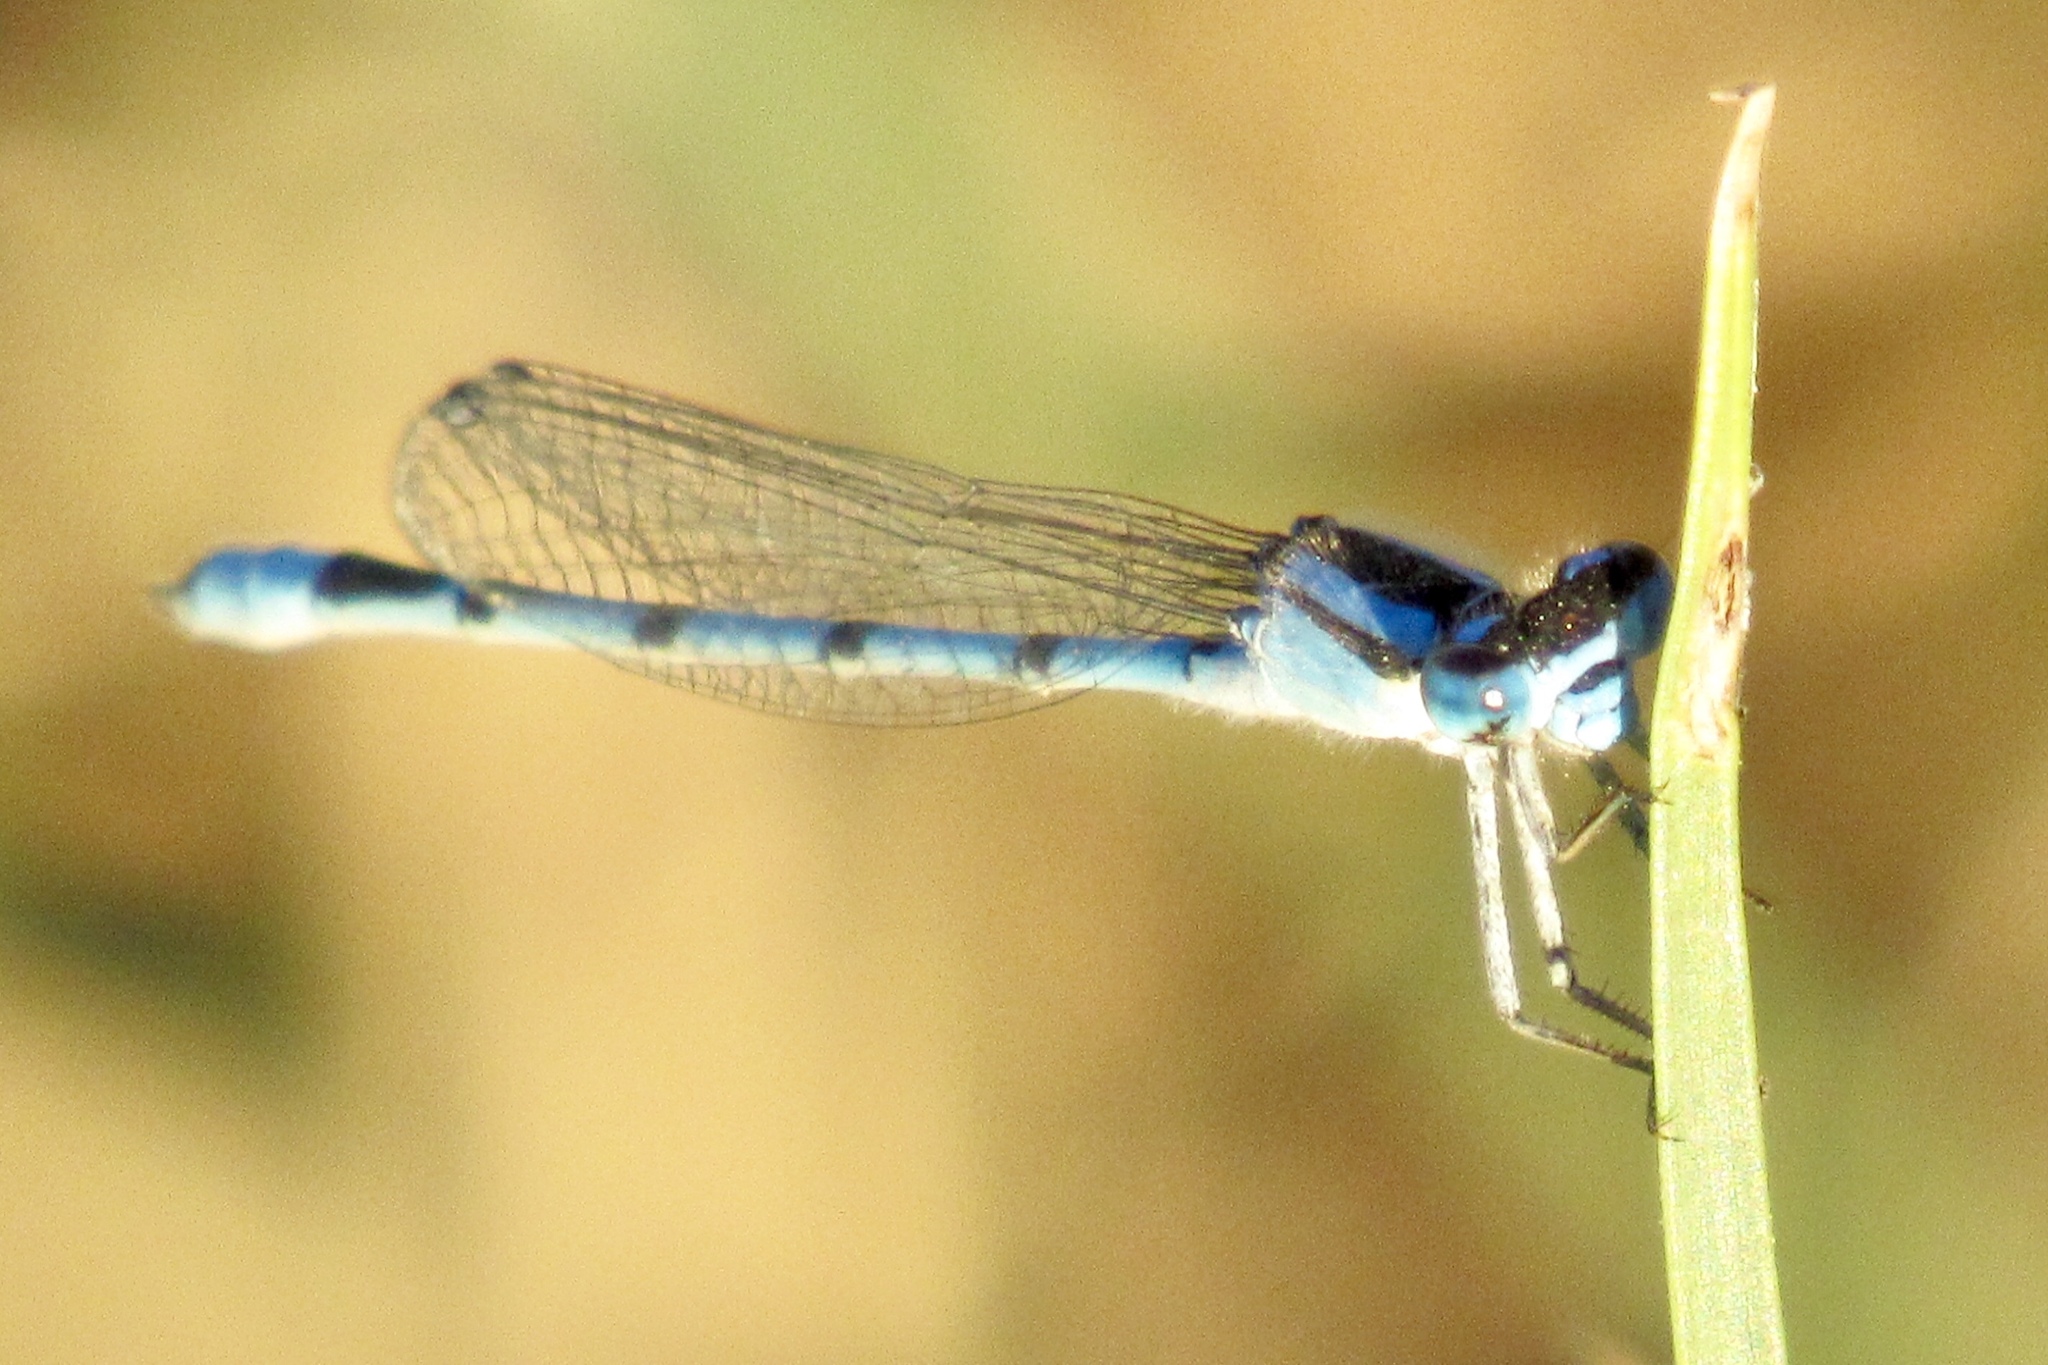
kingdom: Animalia
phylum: Arthropoda
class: Insecta
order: Odonata
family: Coenagrionidae
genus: Enallagma
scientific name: Enallagma basidens
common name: Double-striped bluet
